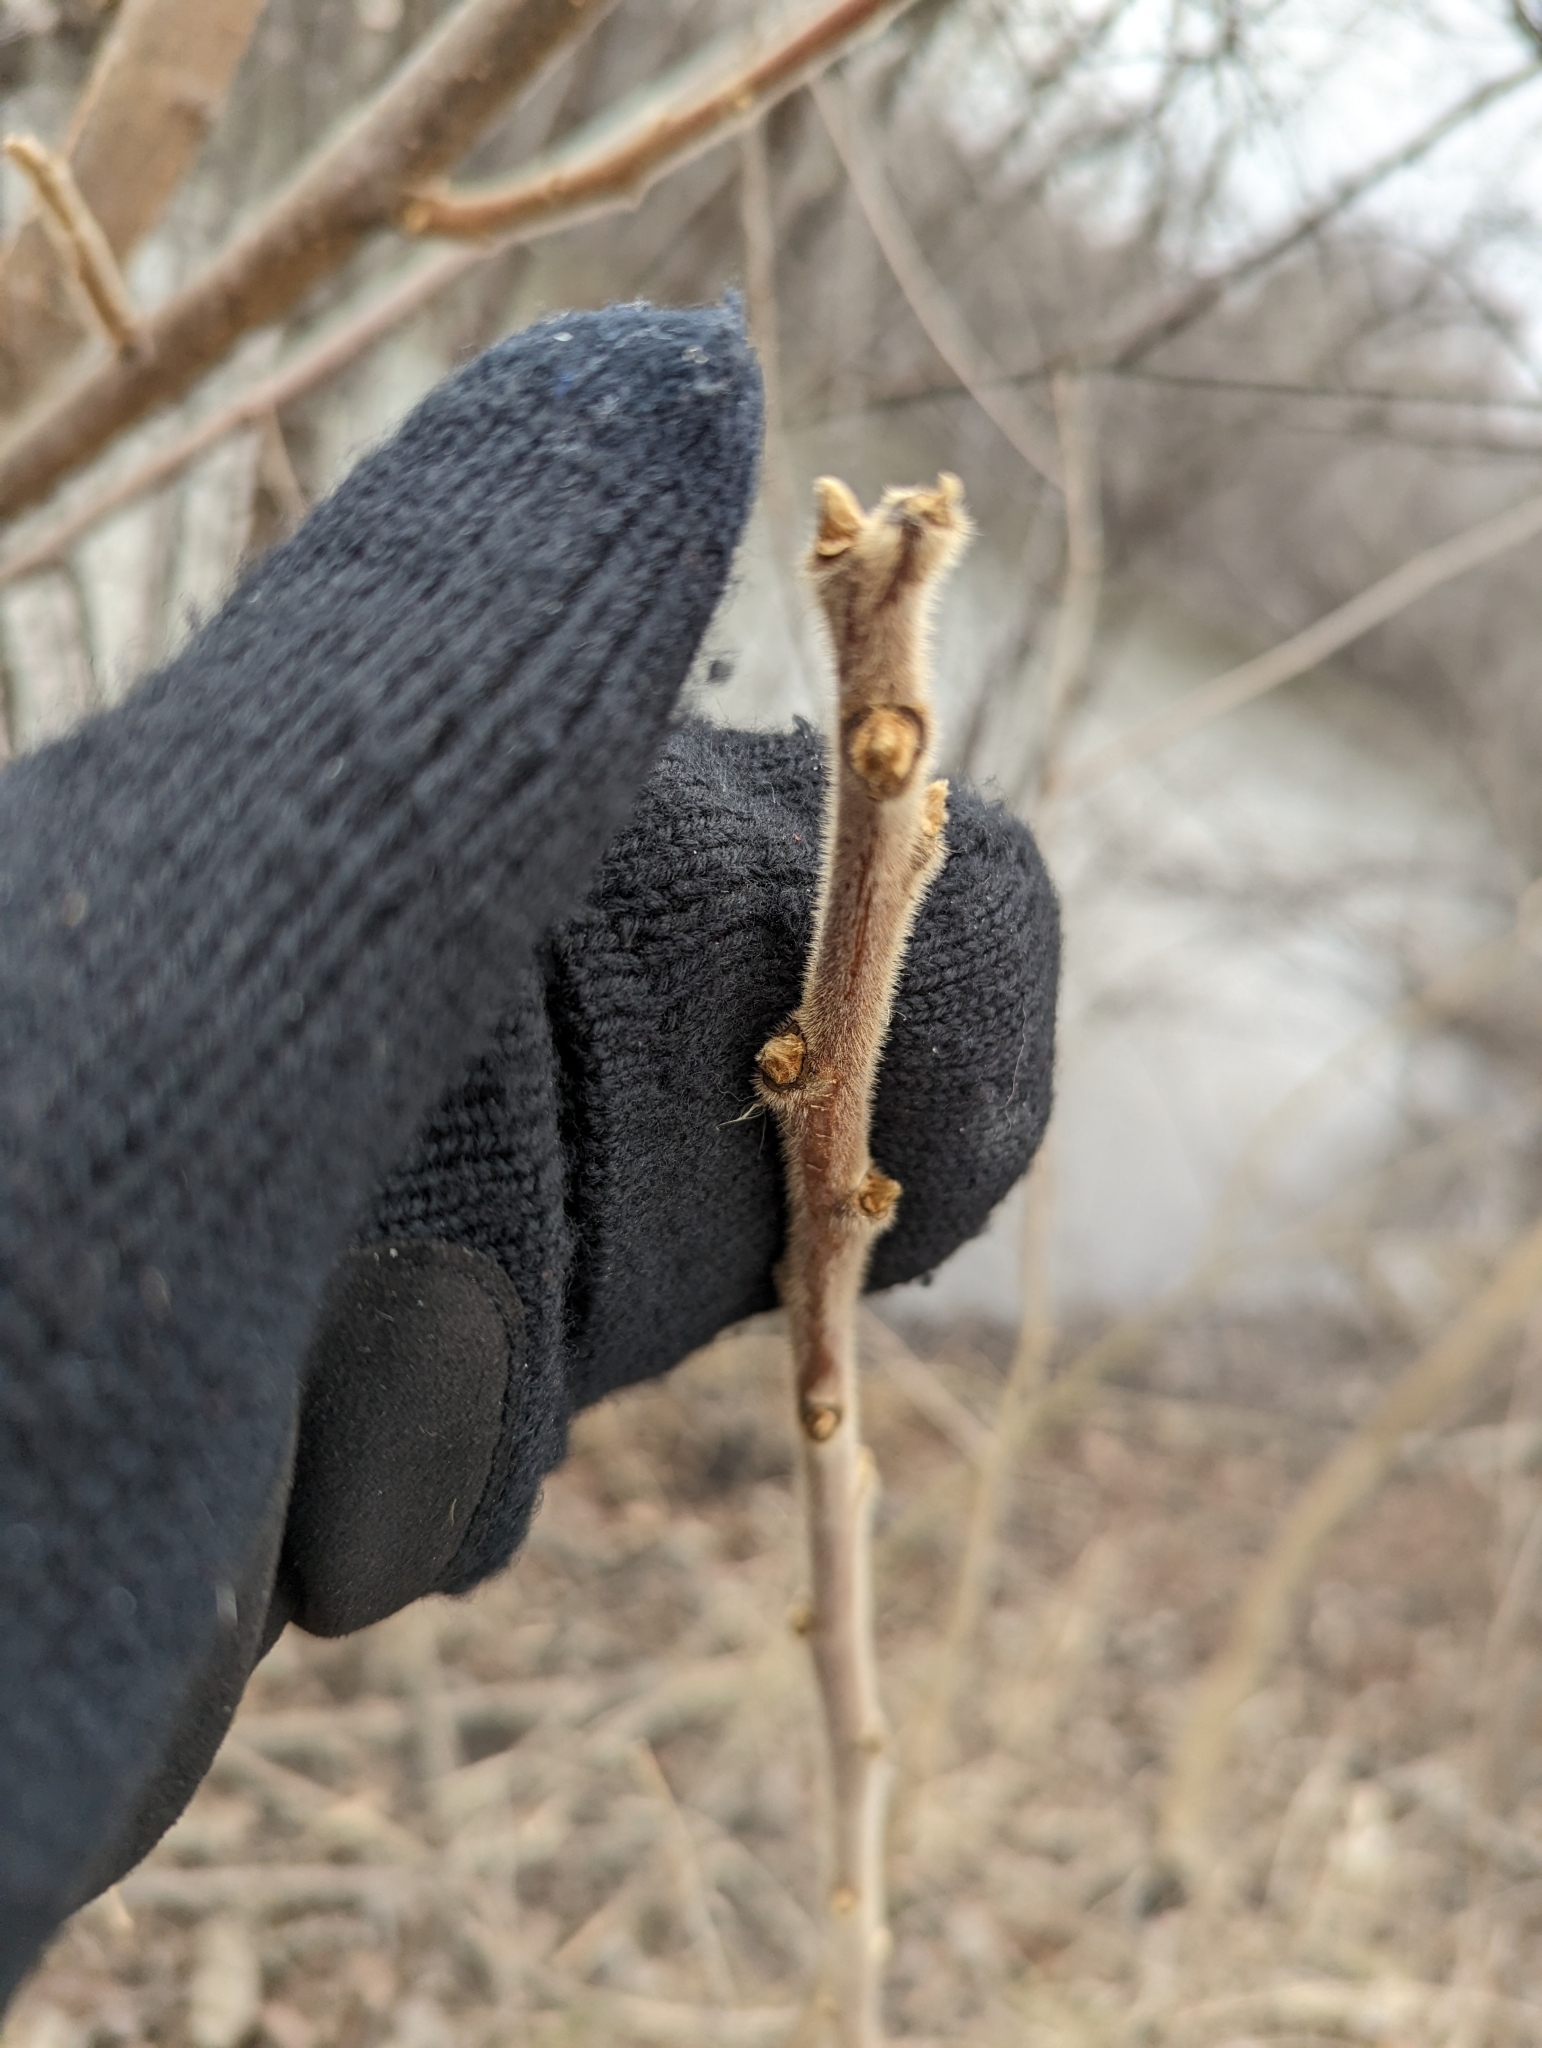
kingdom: Plantae
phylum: Tracheophyta
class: Magnoliopsida
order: Sapindales
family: Anacardiaceae
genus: Rhus
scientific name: Rhus typhina
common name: Staghorn sumac
